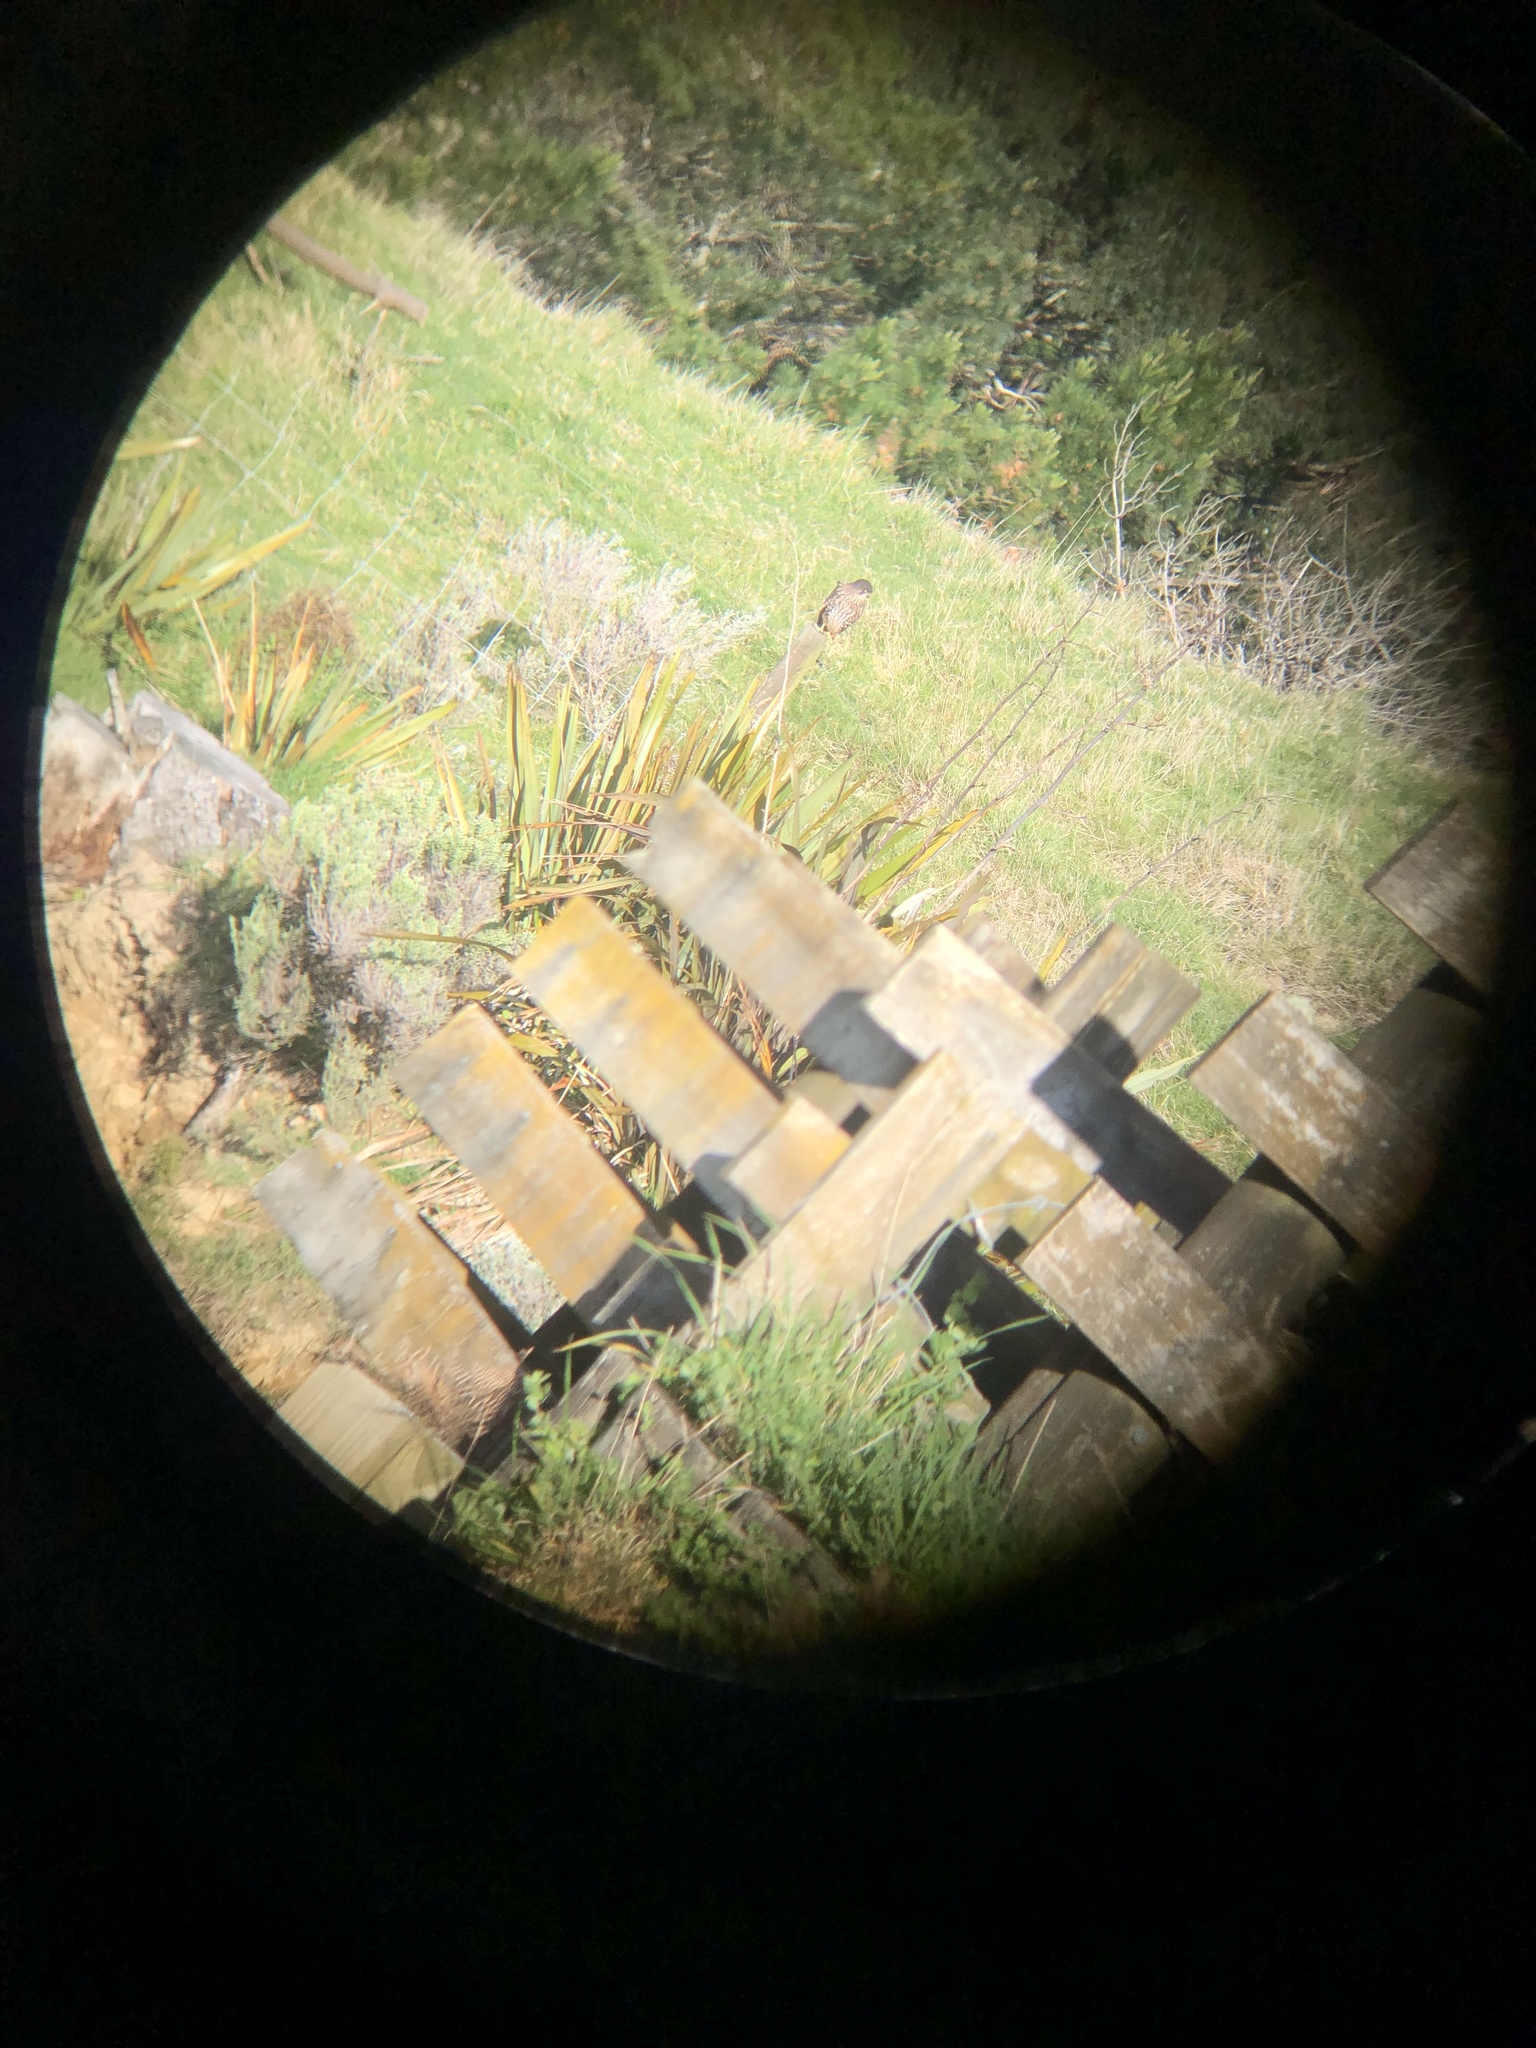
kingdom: Animalia
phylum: Chordata
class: Aves
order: Falconiformes
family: Falconidae
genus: Falco
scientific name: Falco novaeseelandiae
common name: New zealand falcon
